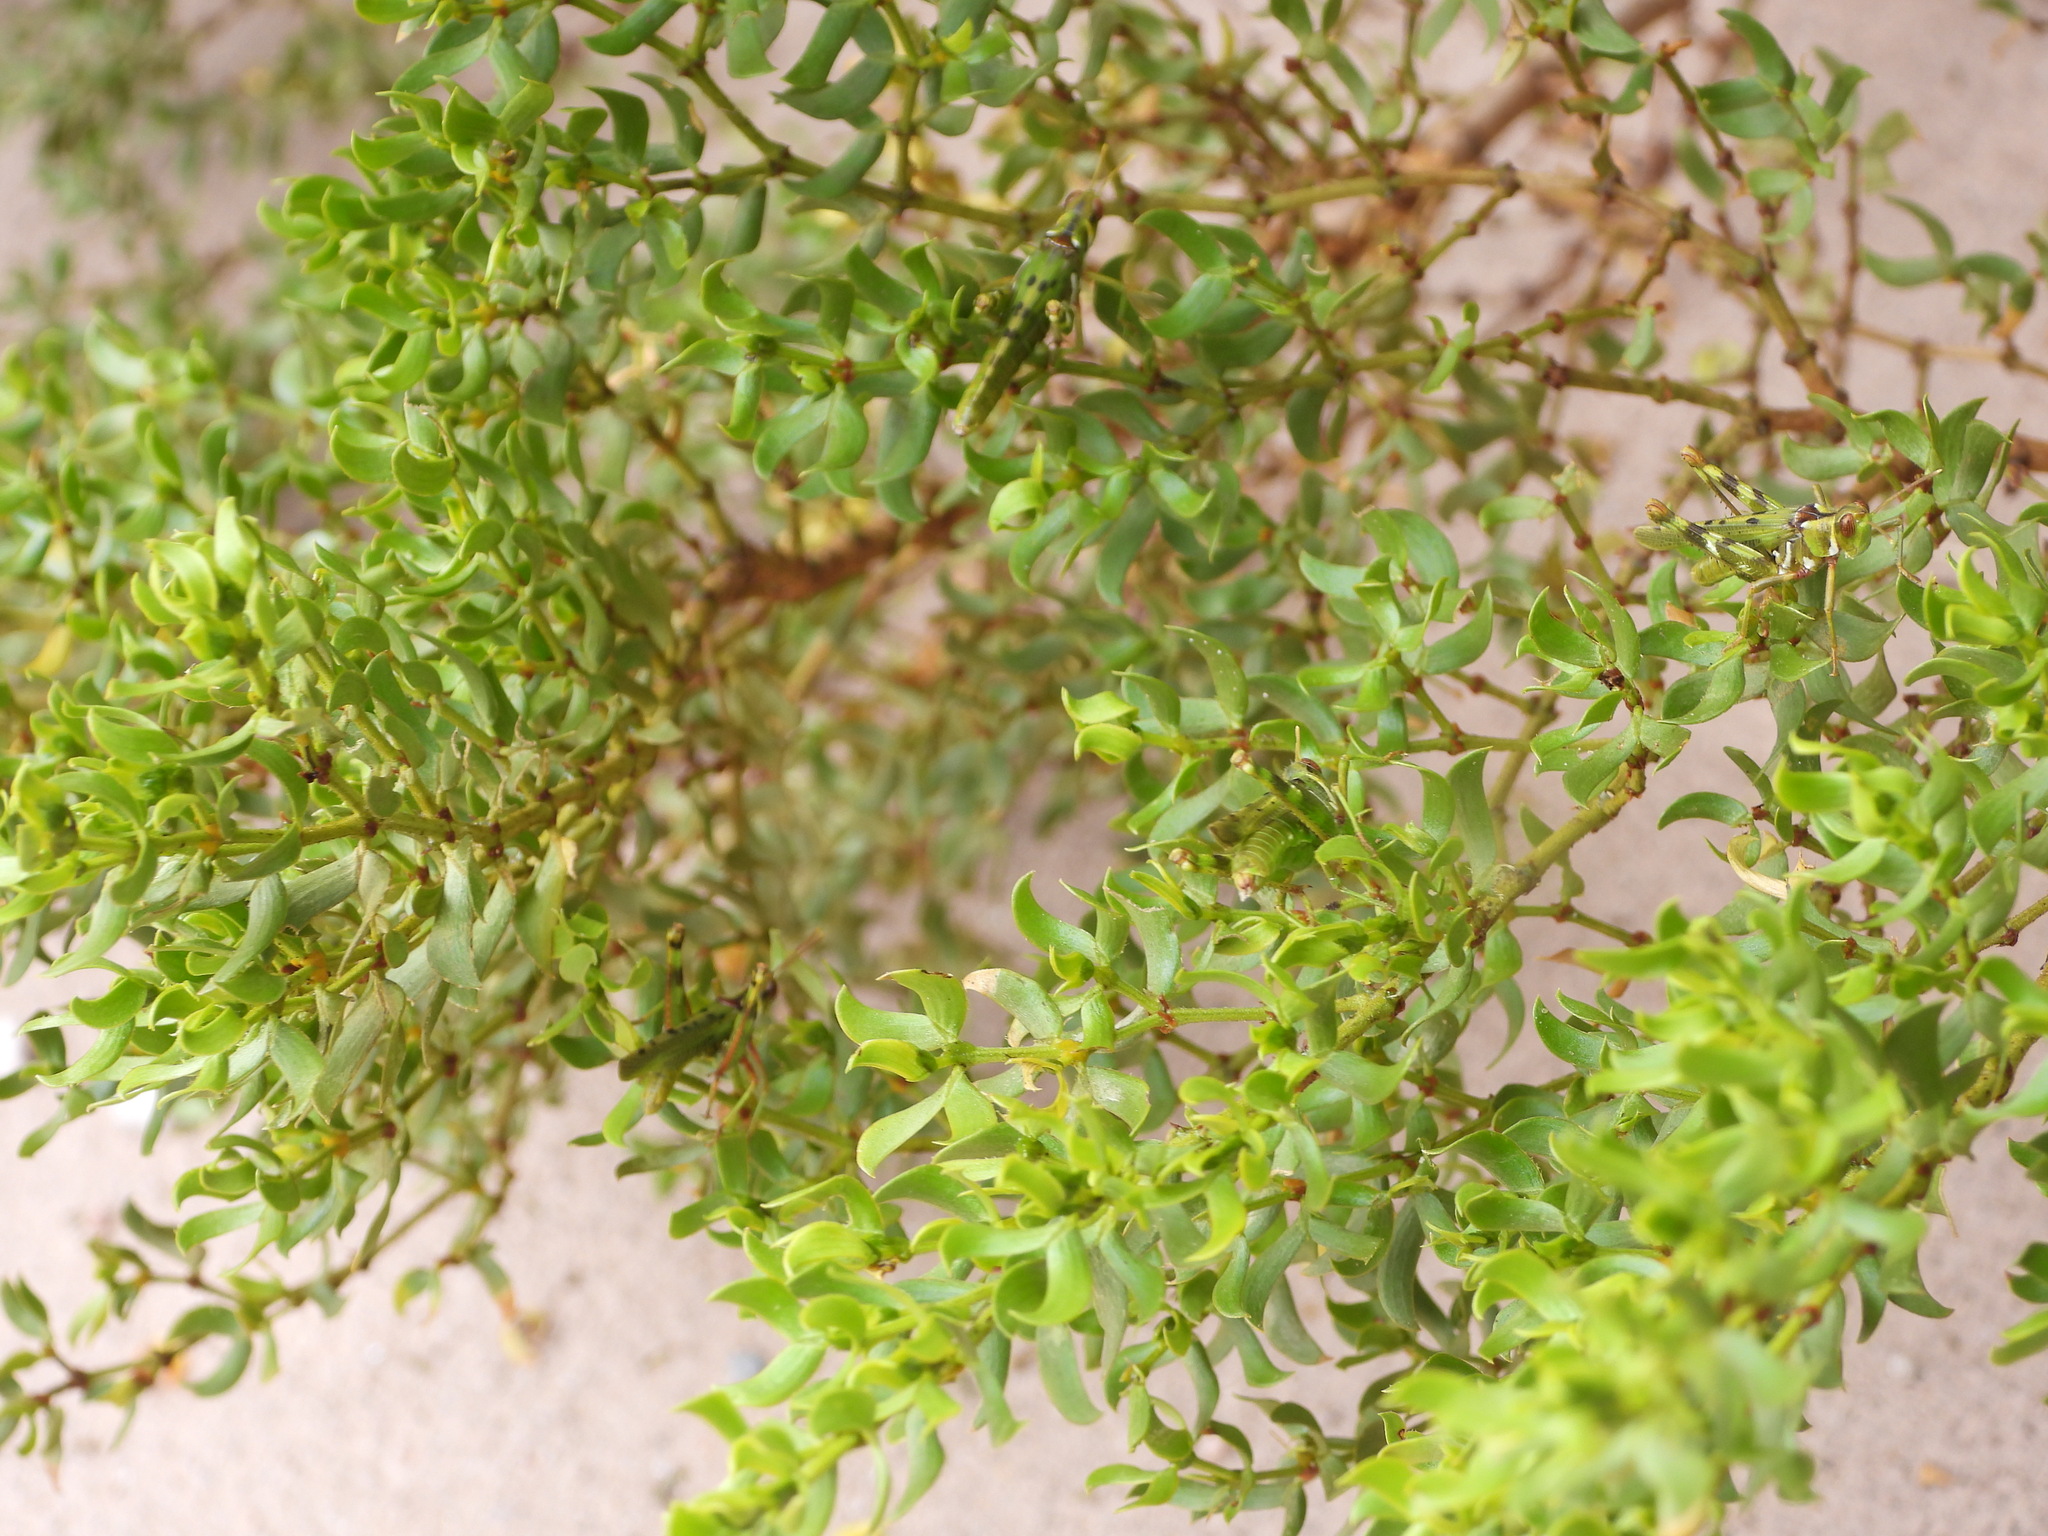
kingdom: Plantae
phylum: Tracheophyta
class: Magnoliopsida
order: Zygophyllales
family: Zygophyllaceae
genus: Larrea
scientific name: Larrea tridentata
